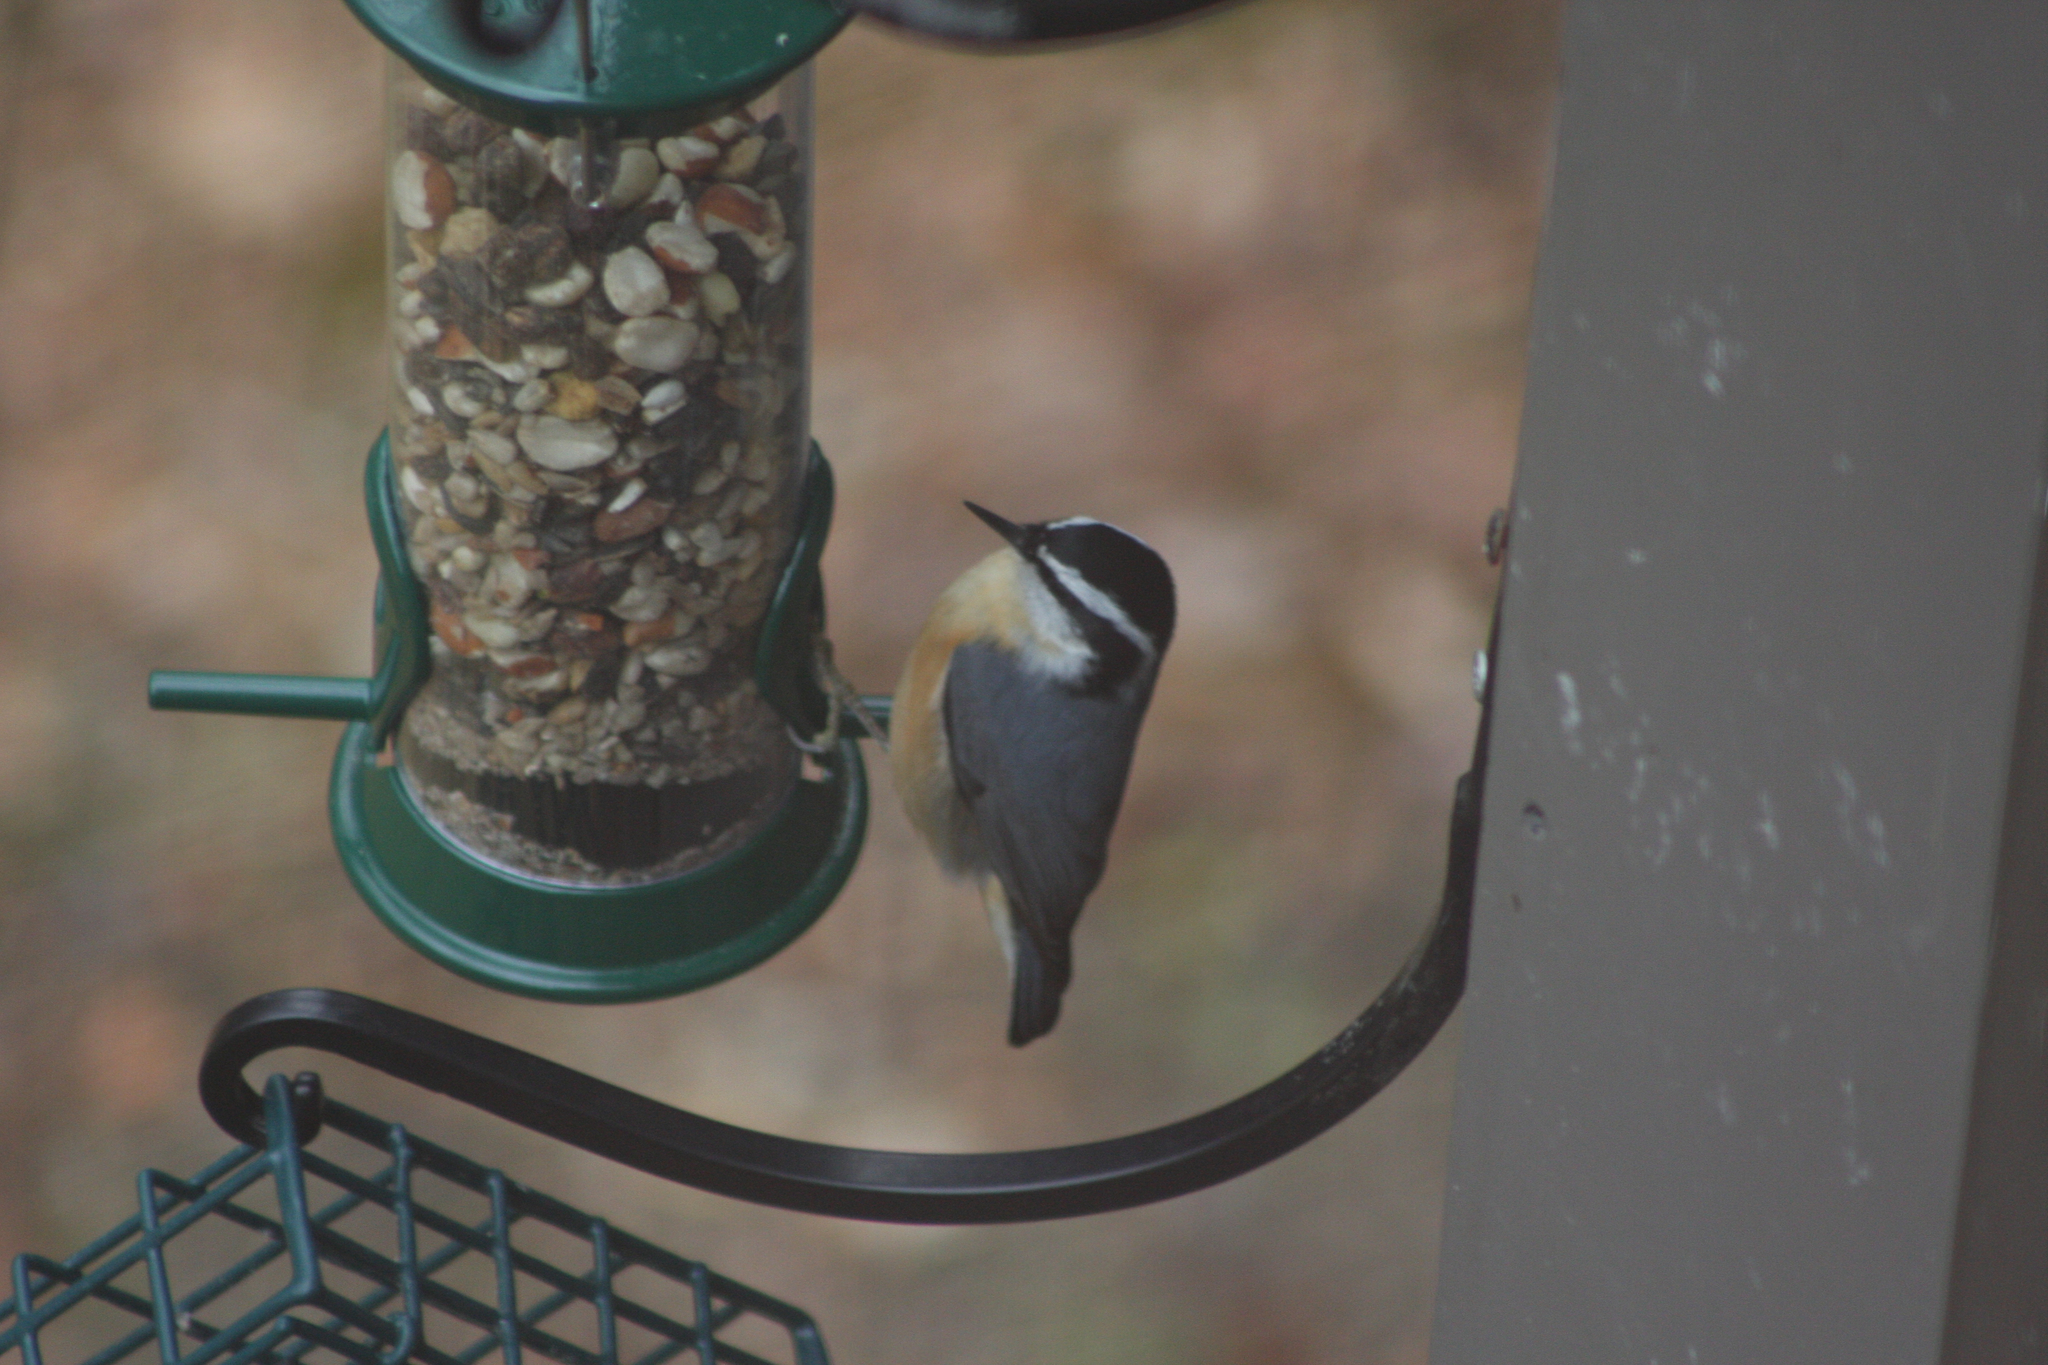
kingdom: Animalia
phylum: Chordata
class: Aves
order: Passeriformes
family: Sittidae
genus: Sitta
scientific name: Sitta canadensis
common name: Red-breasted nuthatch
